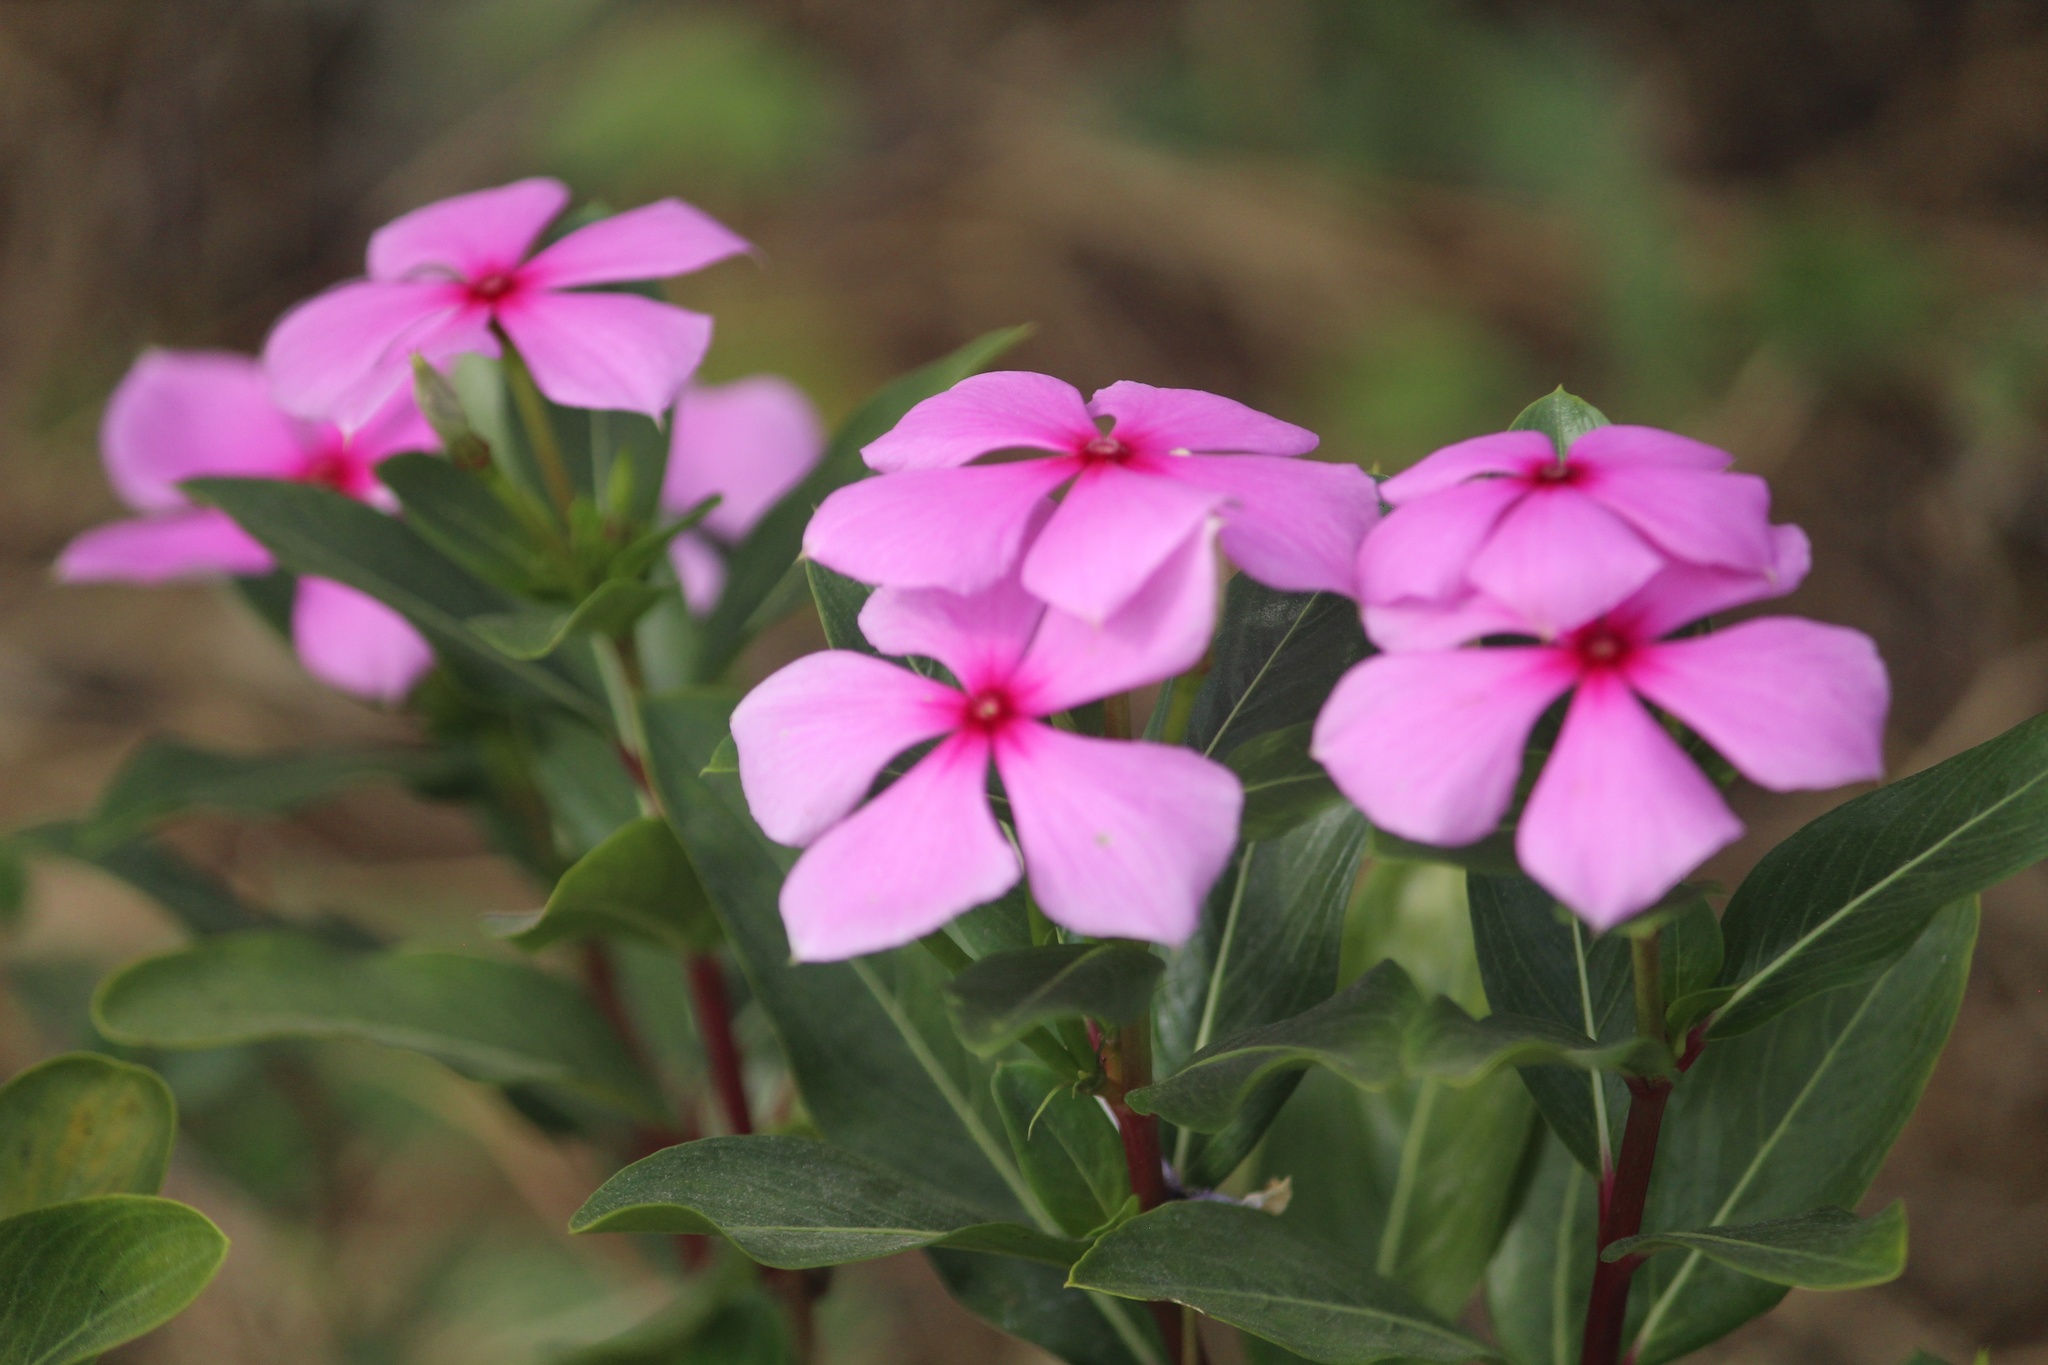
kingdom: Plantae
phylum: Tracheophyta
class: Magnoliopsida
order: Gentianales
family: Apocynaceae
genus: Catharanthus
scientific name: Catharanthus roseus
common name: Madagascar periwinkle
